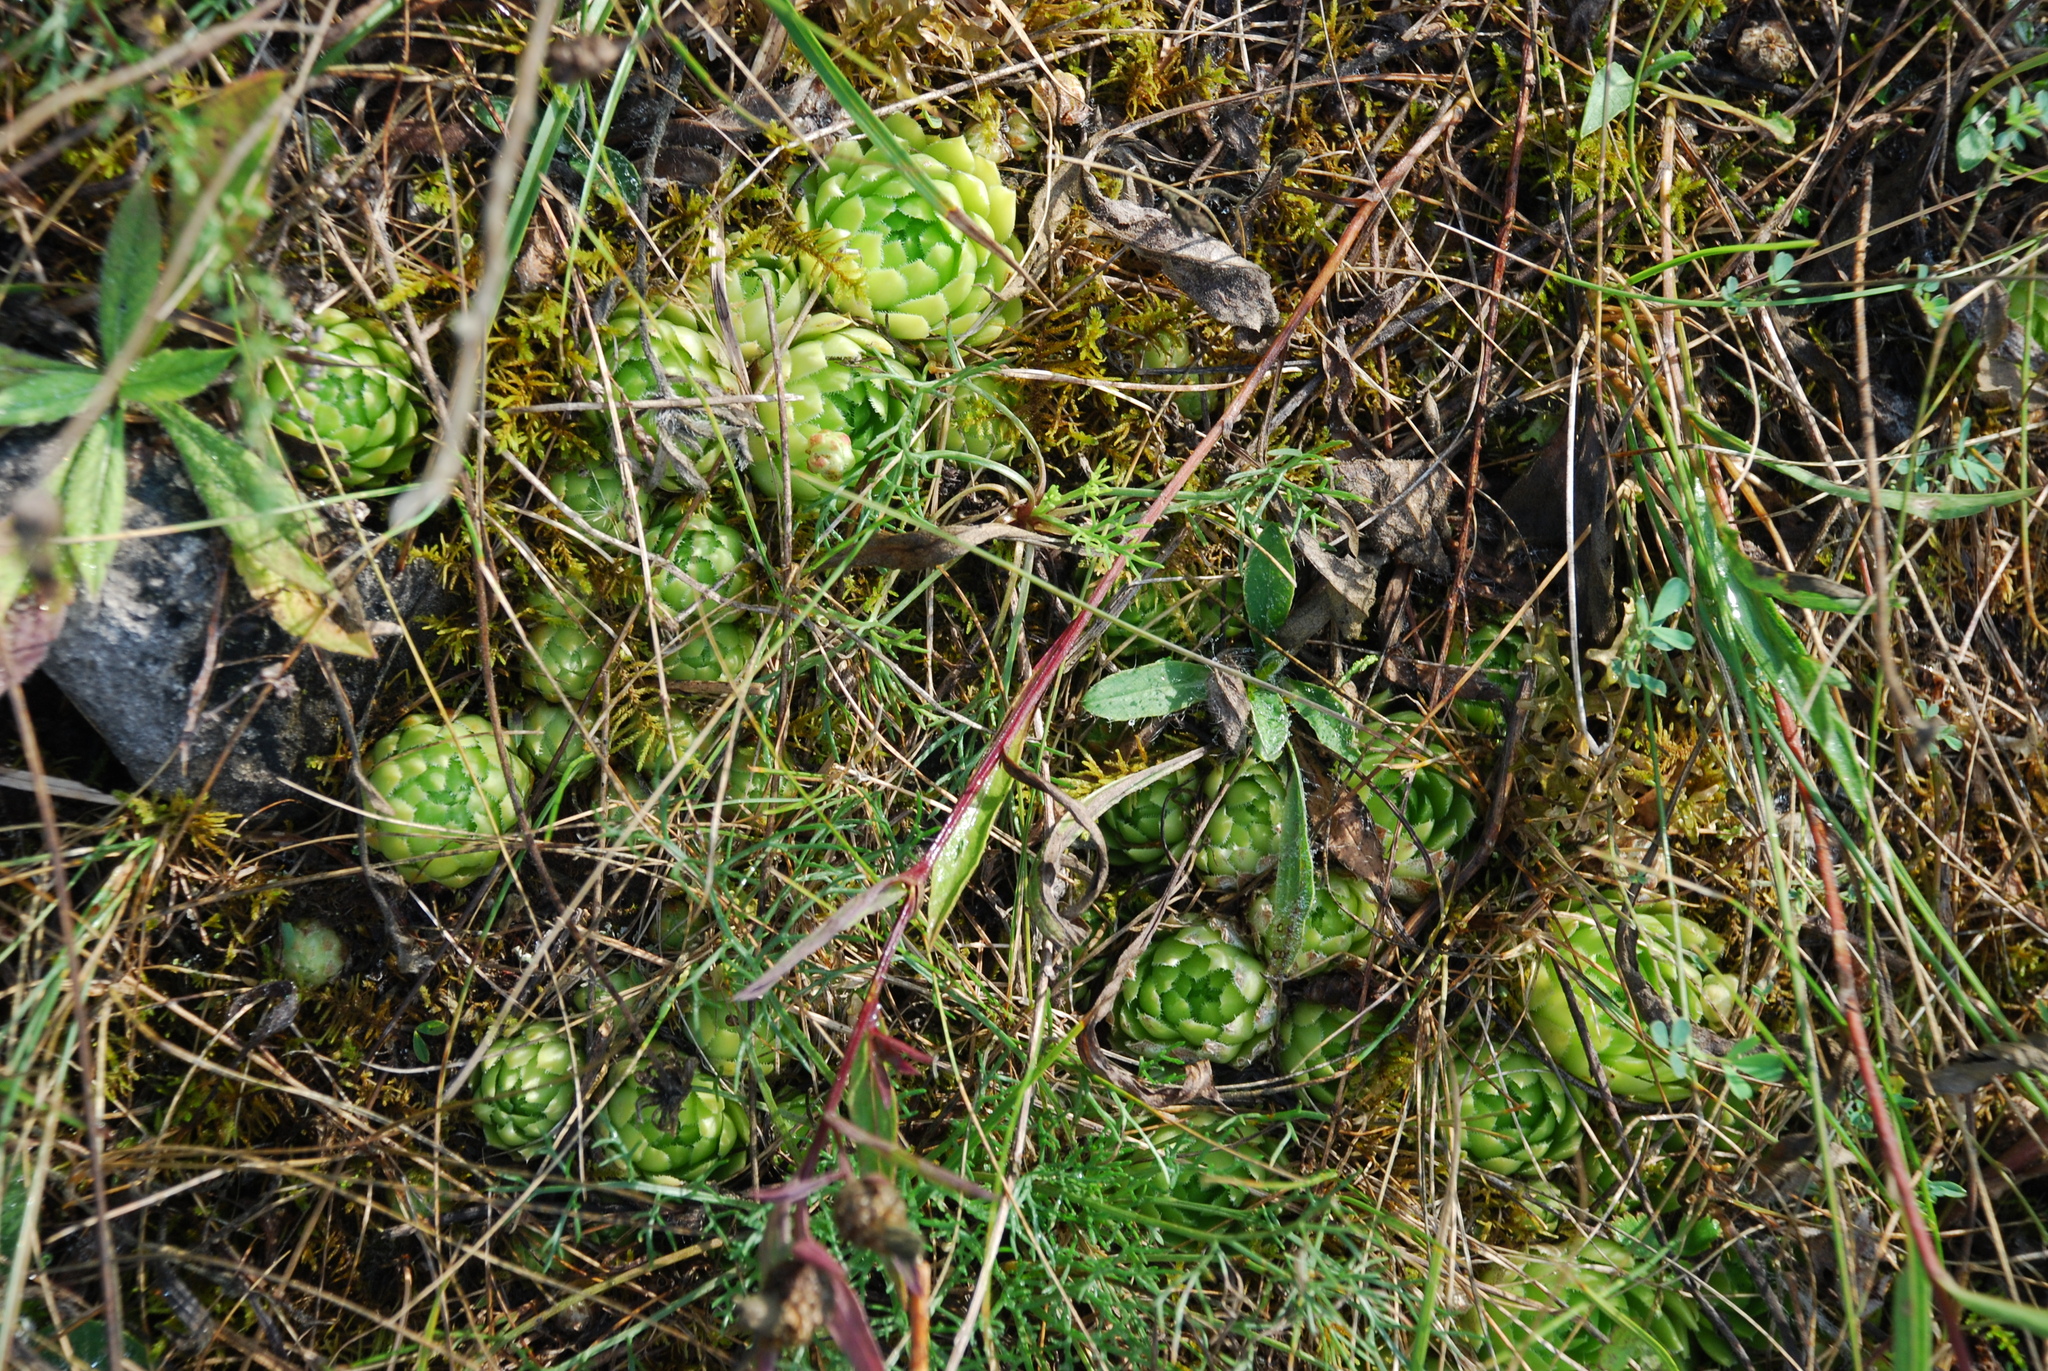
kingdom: Plantae
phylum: Tracheophyta
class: Magnoliopsida
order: Saxifragales
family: Crassulaceae
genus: Sempervivum
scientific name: Sempervivum globiferum
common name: Rolling hen-and-chicks
